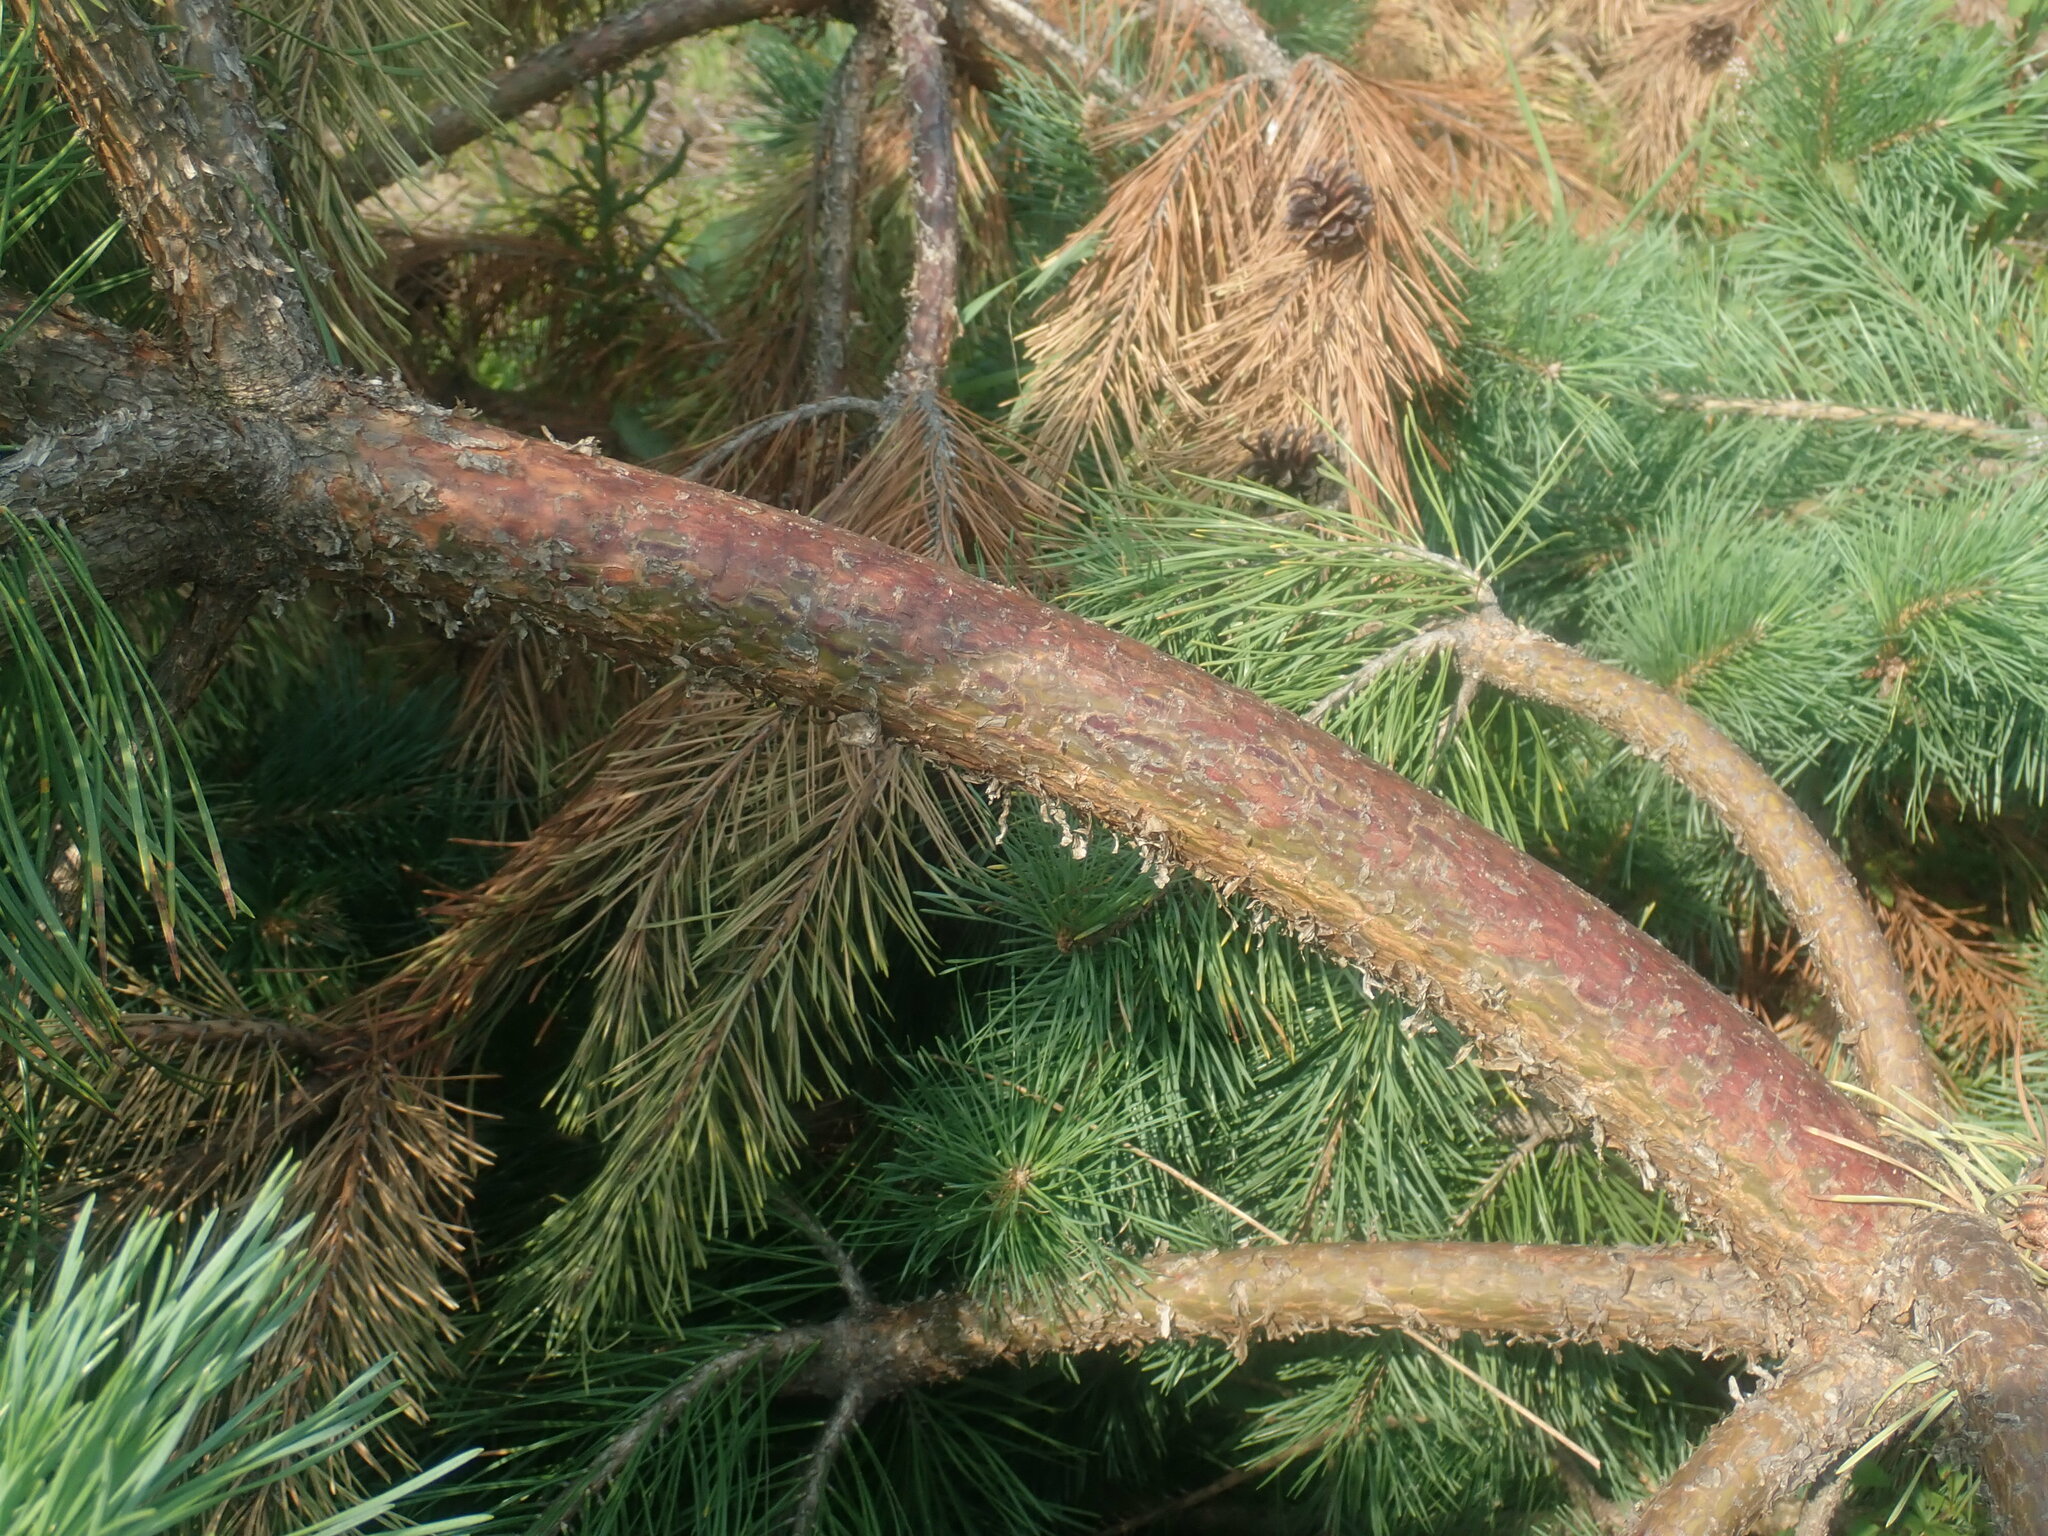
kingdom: Plantae
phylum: Tracheophyta
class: Pinopsida
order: Pinales
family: Pinaceae
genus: Pinus
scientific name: Pinus sylvestris
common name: Scots pine
